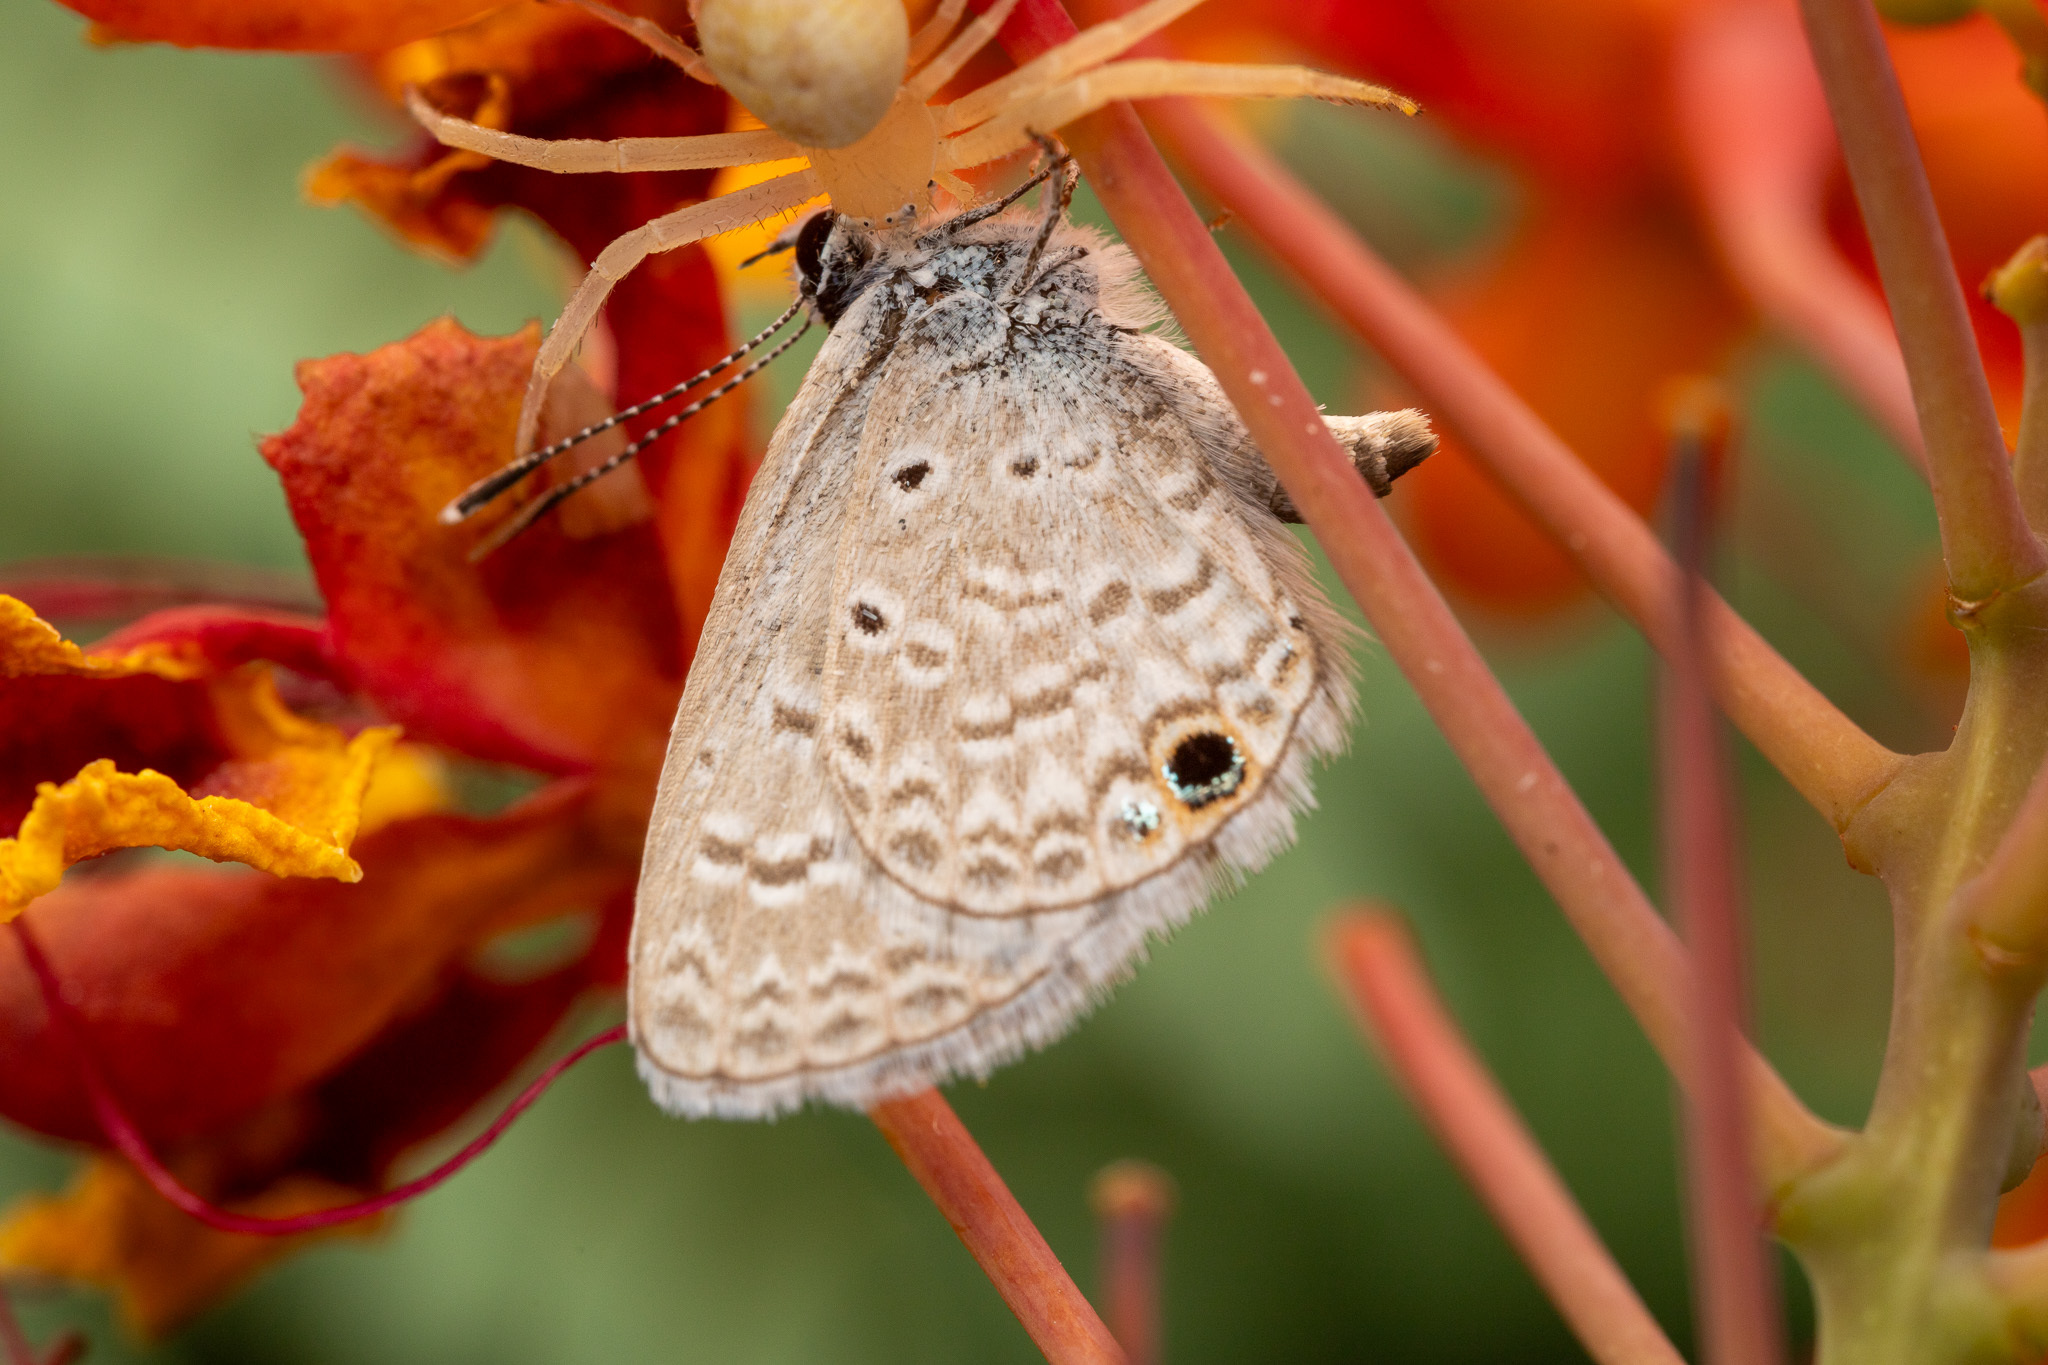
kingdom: Animalia
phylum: Arthropoda
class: Insecta
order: Lepidoptera
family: Lycaenidae
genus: Hemiargus
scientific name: Hemiargus ceraunus
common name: Ceraunus blue
